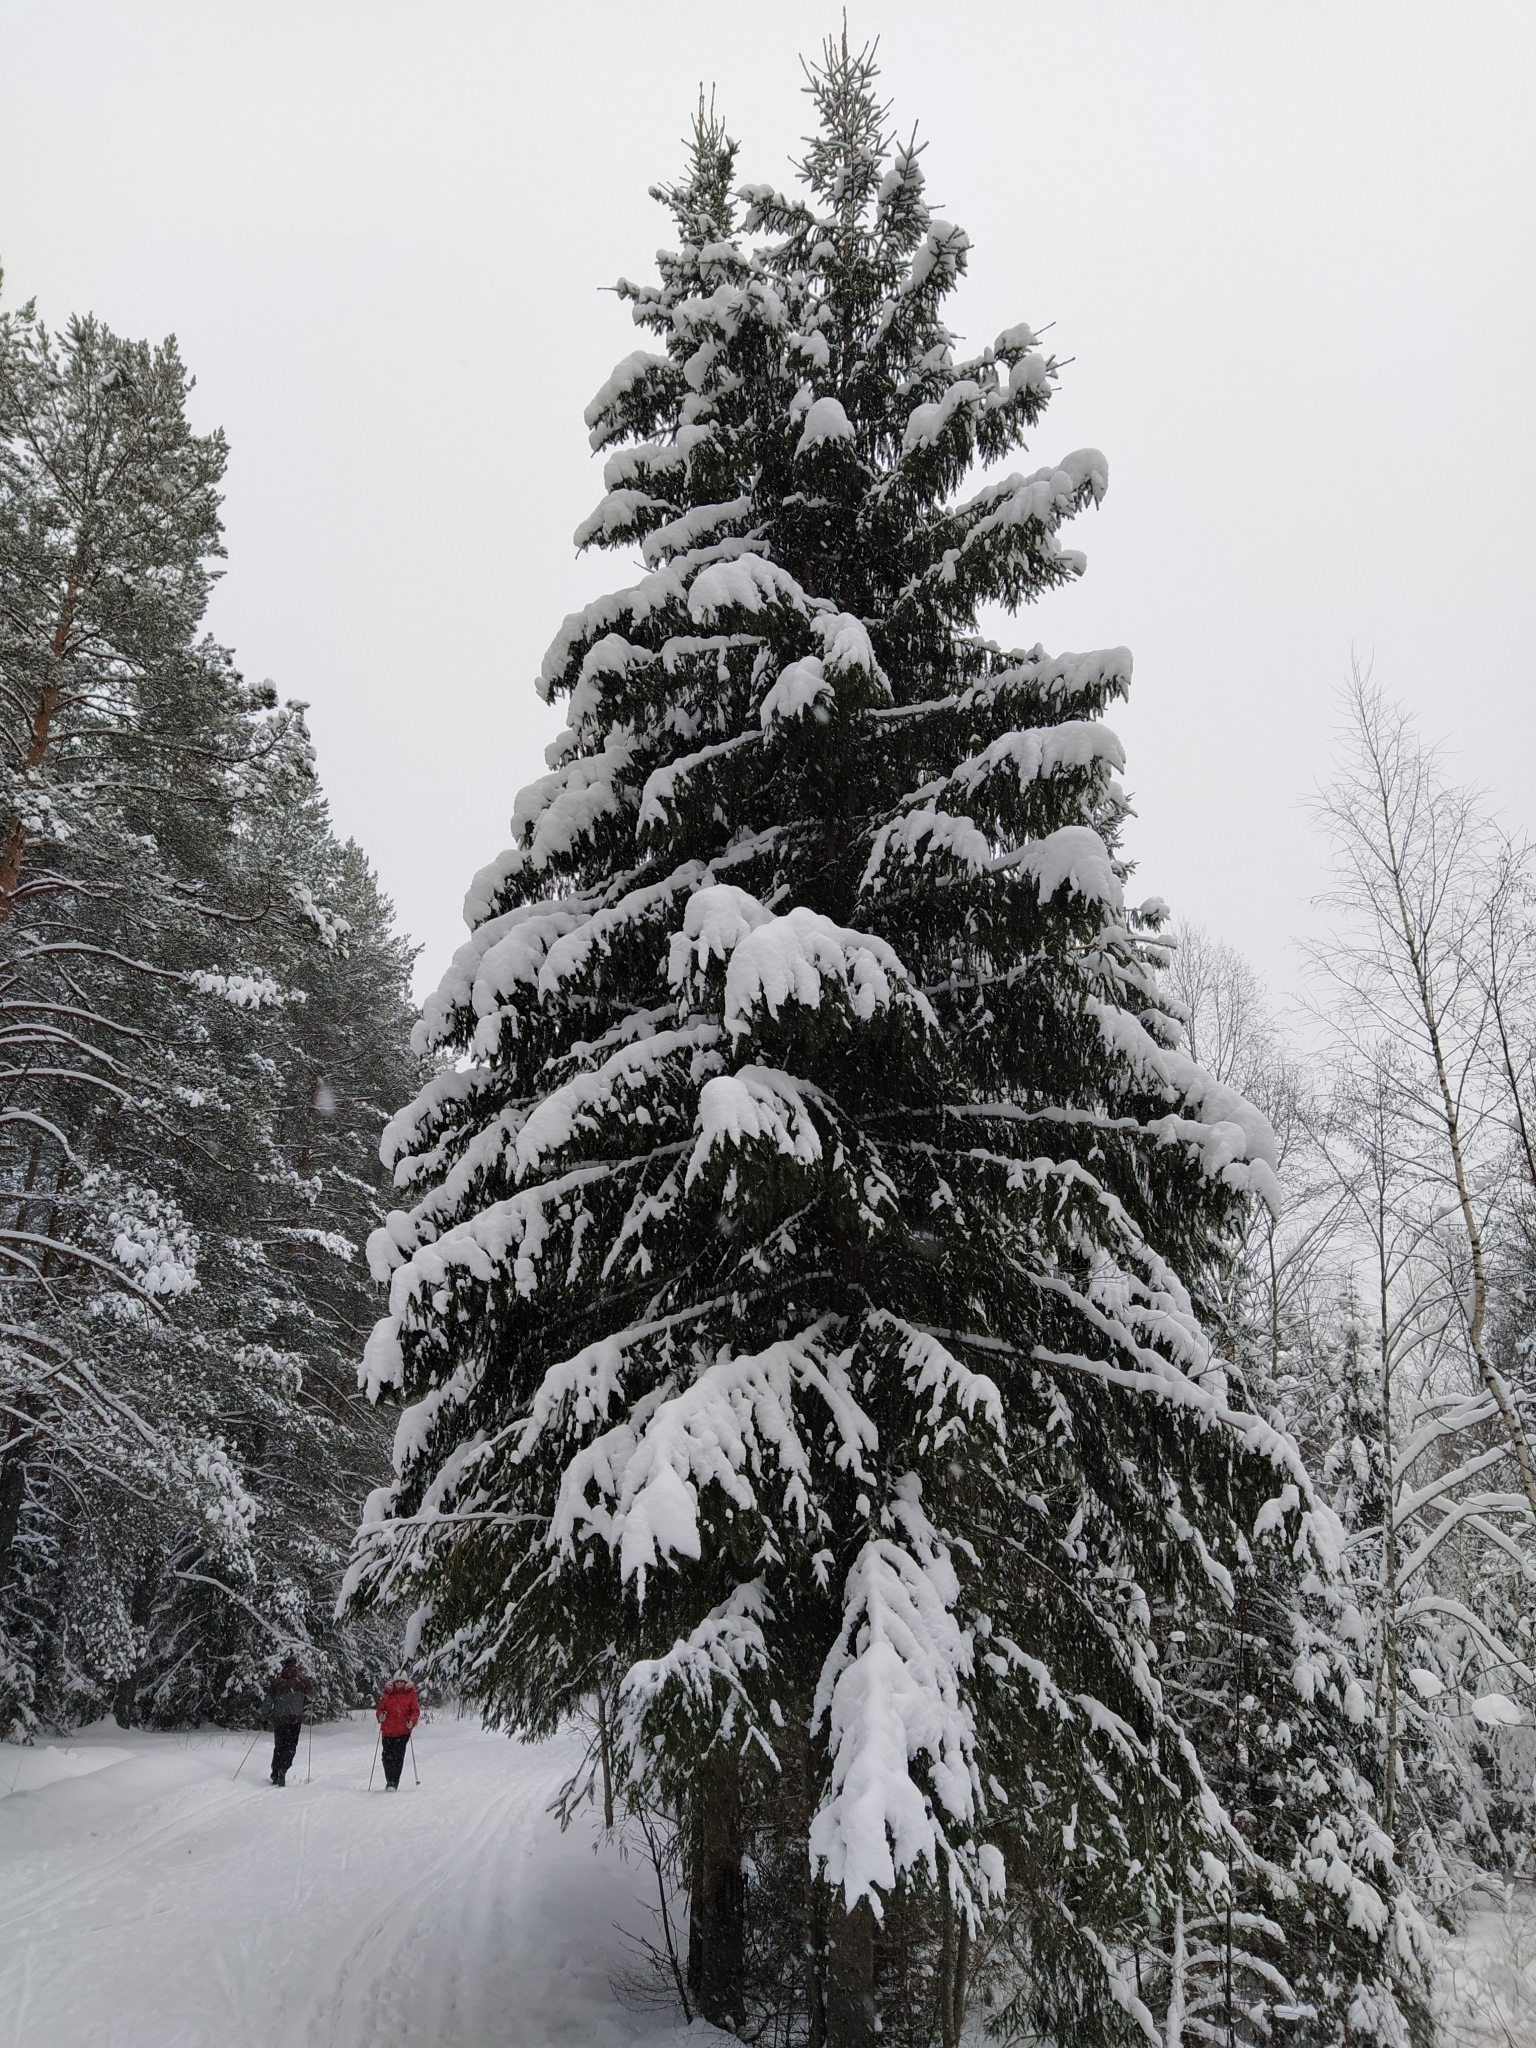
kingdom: Plantae
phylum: Tracheophyta
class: Pinopsida
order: Pinales
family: Pinaceae
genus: Picea
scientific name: Picea abies
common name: Norway spruce
